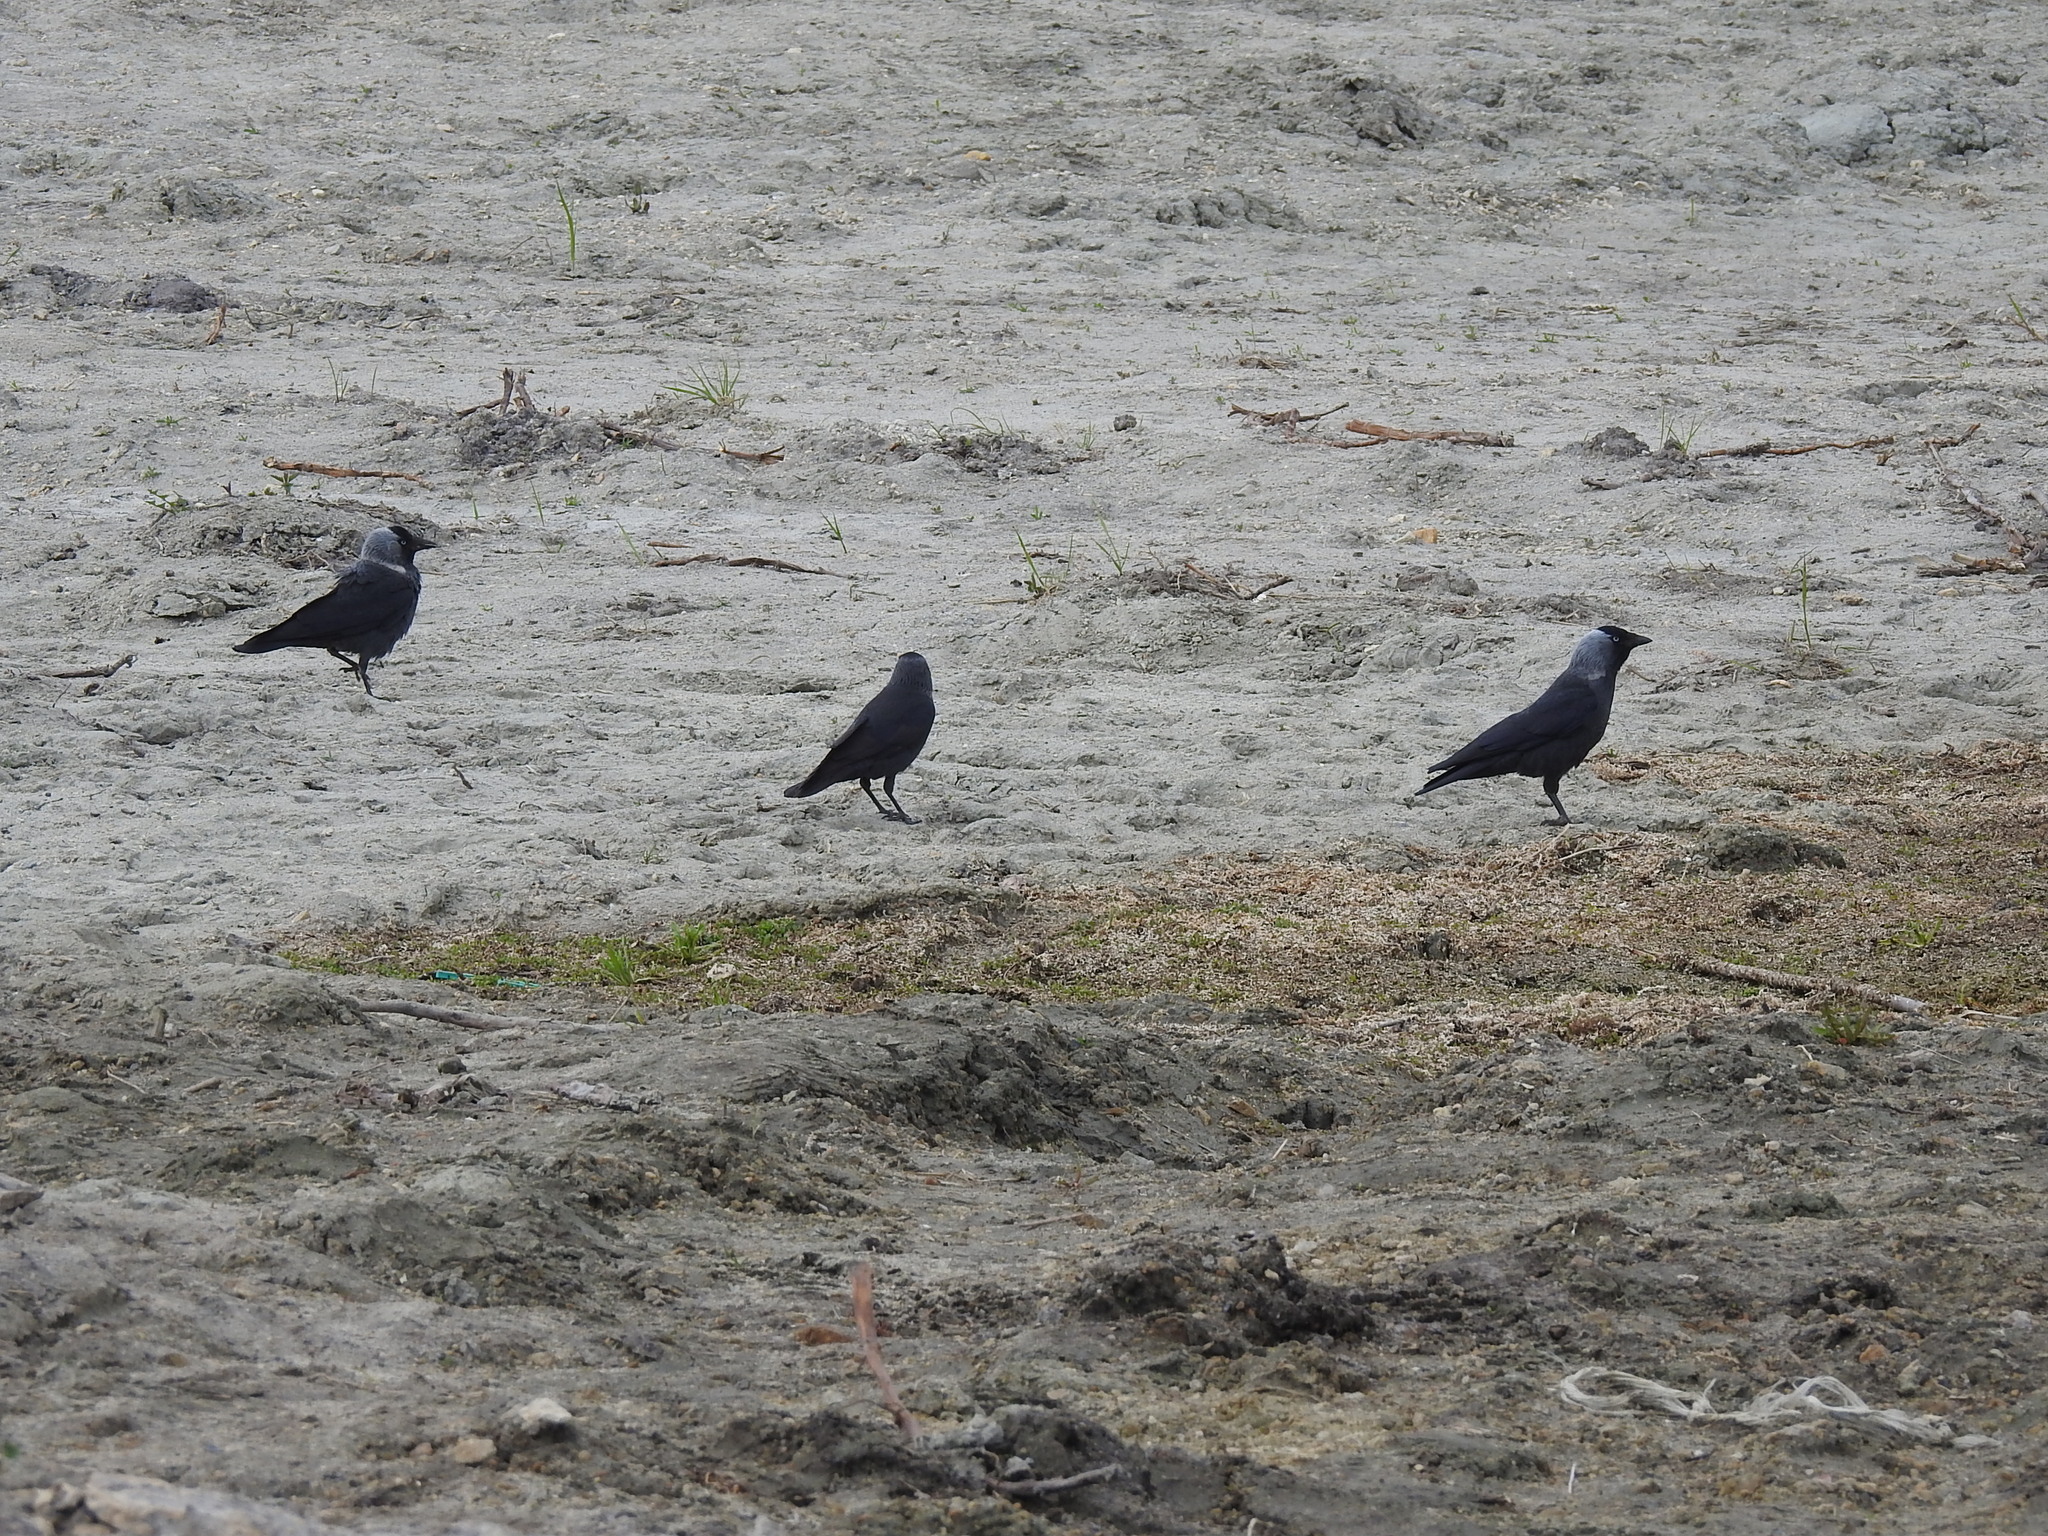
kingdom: Animalia
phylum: Chordata
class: Aves
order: Passeriformes
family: Corvidae
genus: Coloeus
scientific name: Coloeus monedula
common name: Western jackdaw
